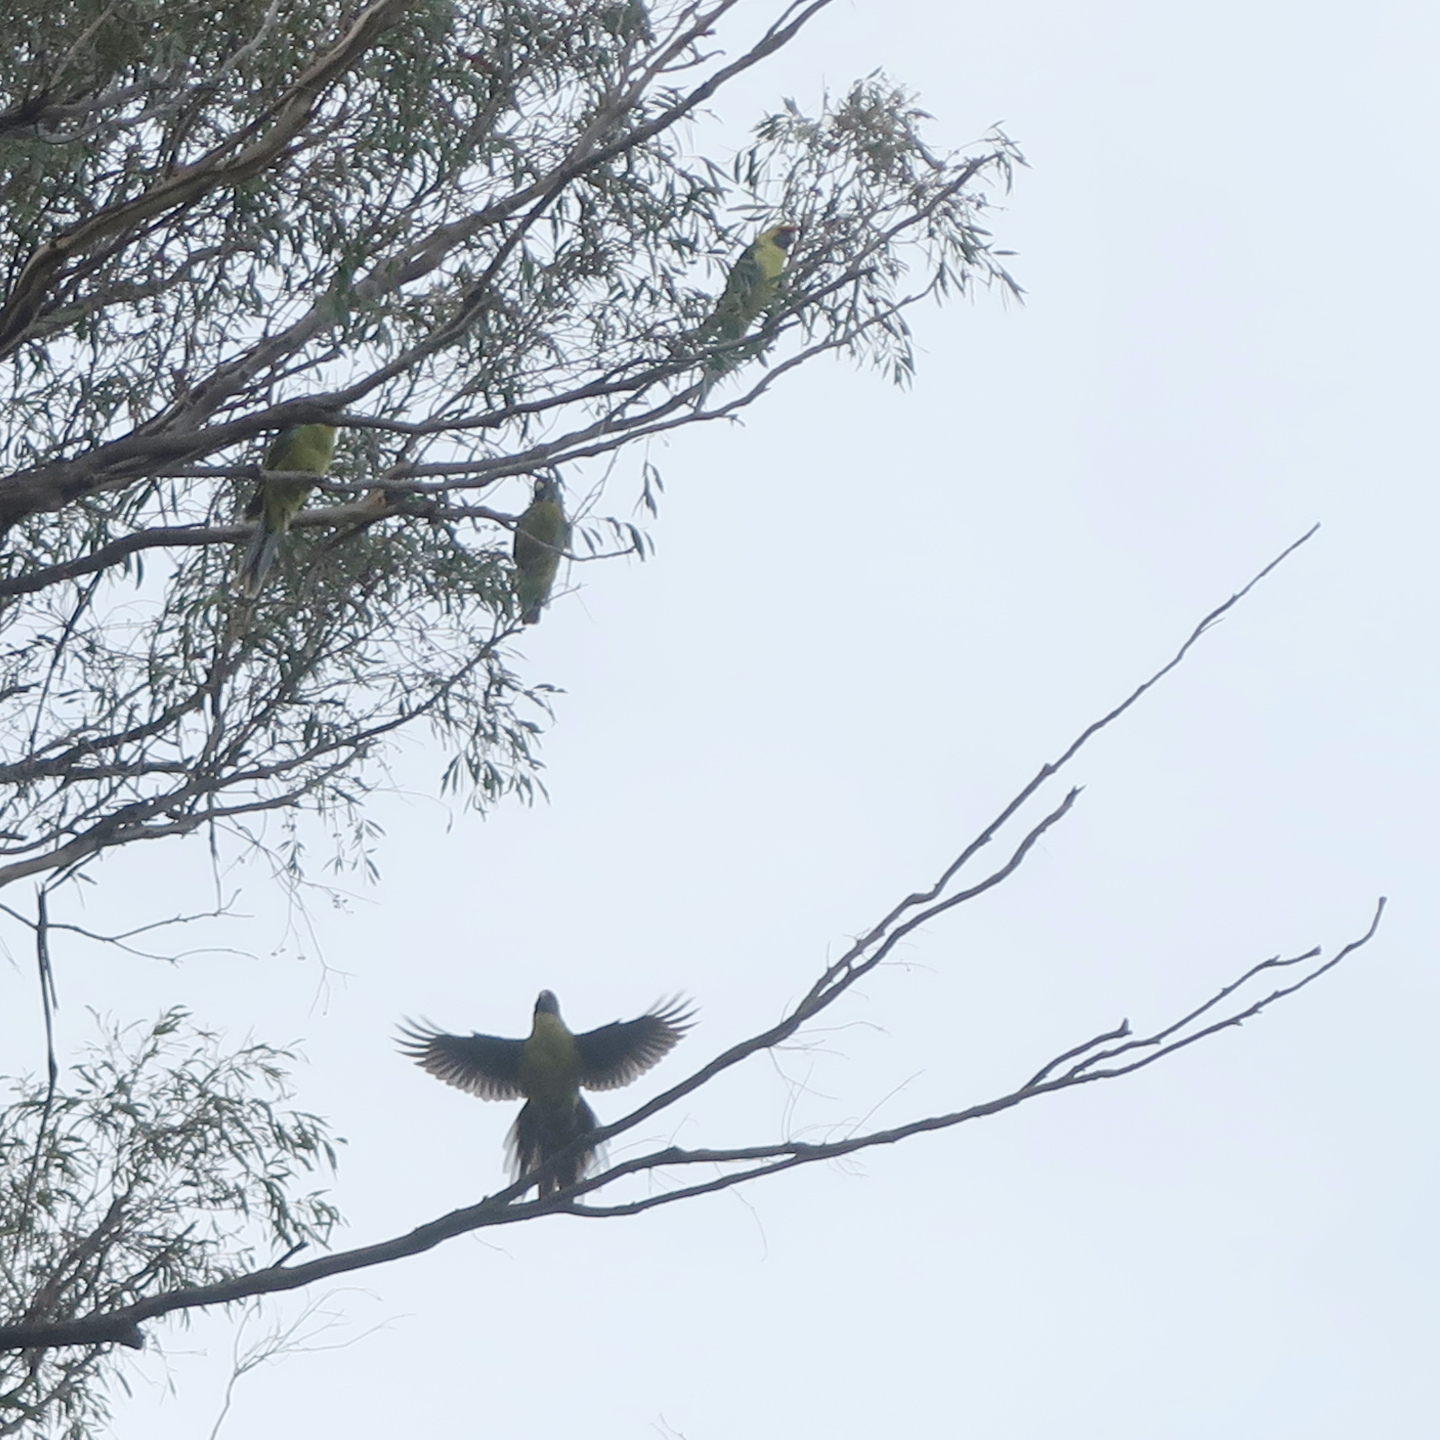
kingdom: Animalia
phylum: Chordata
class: Aves
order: Psittaciformes
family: Psittacidae
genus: Platycercus
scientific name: Platycercus caledonicus
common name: Green rosella
